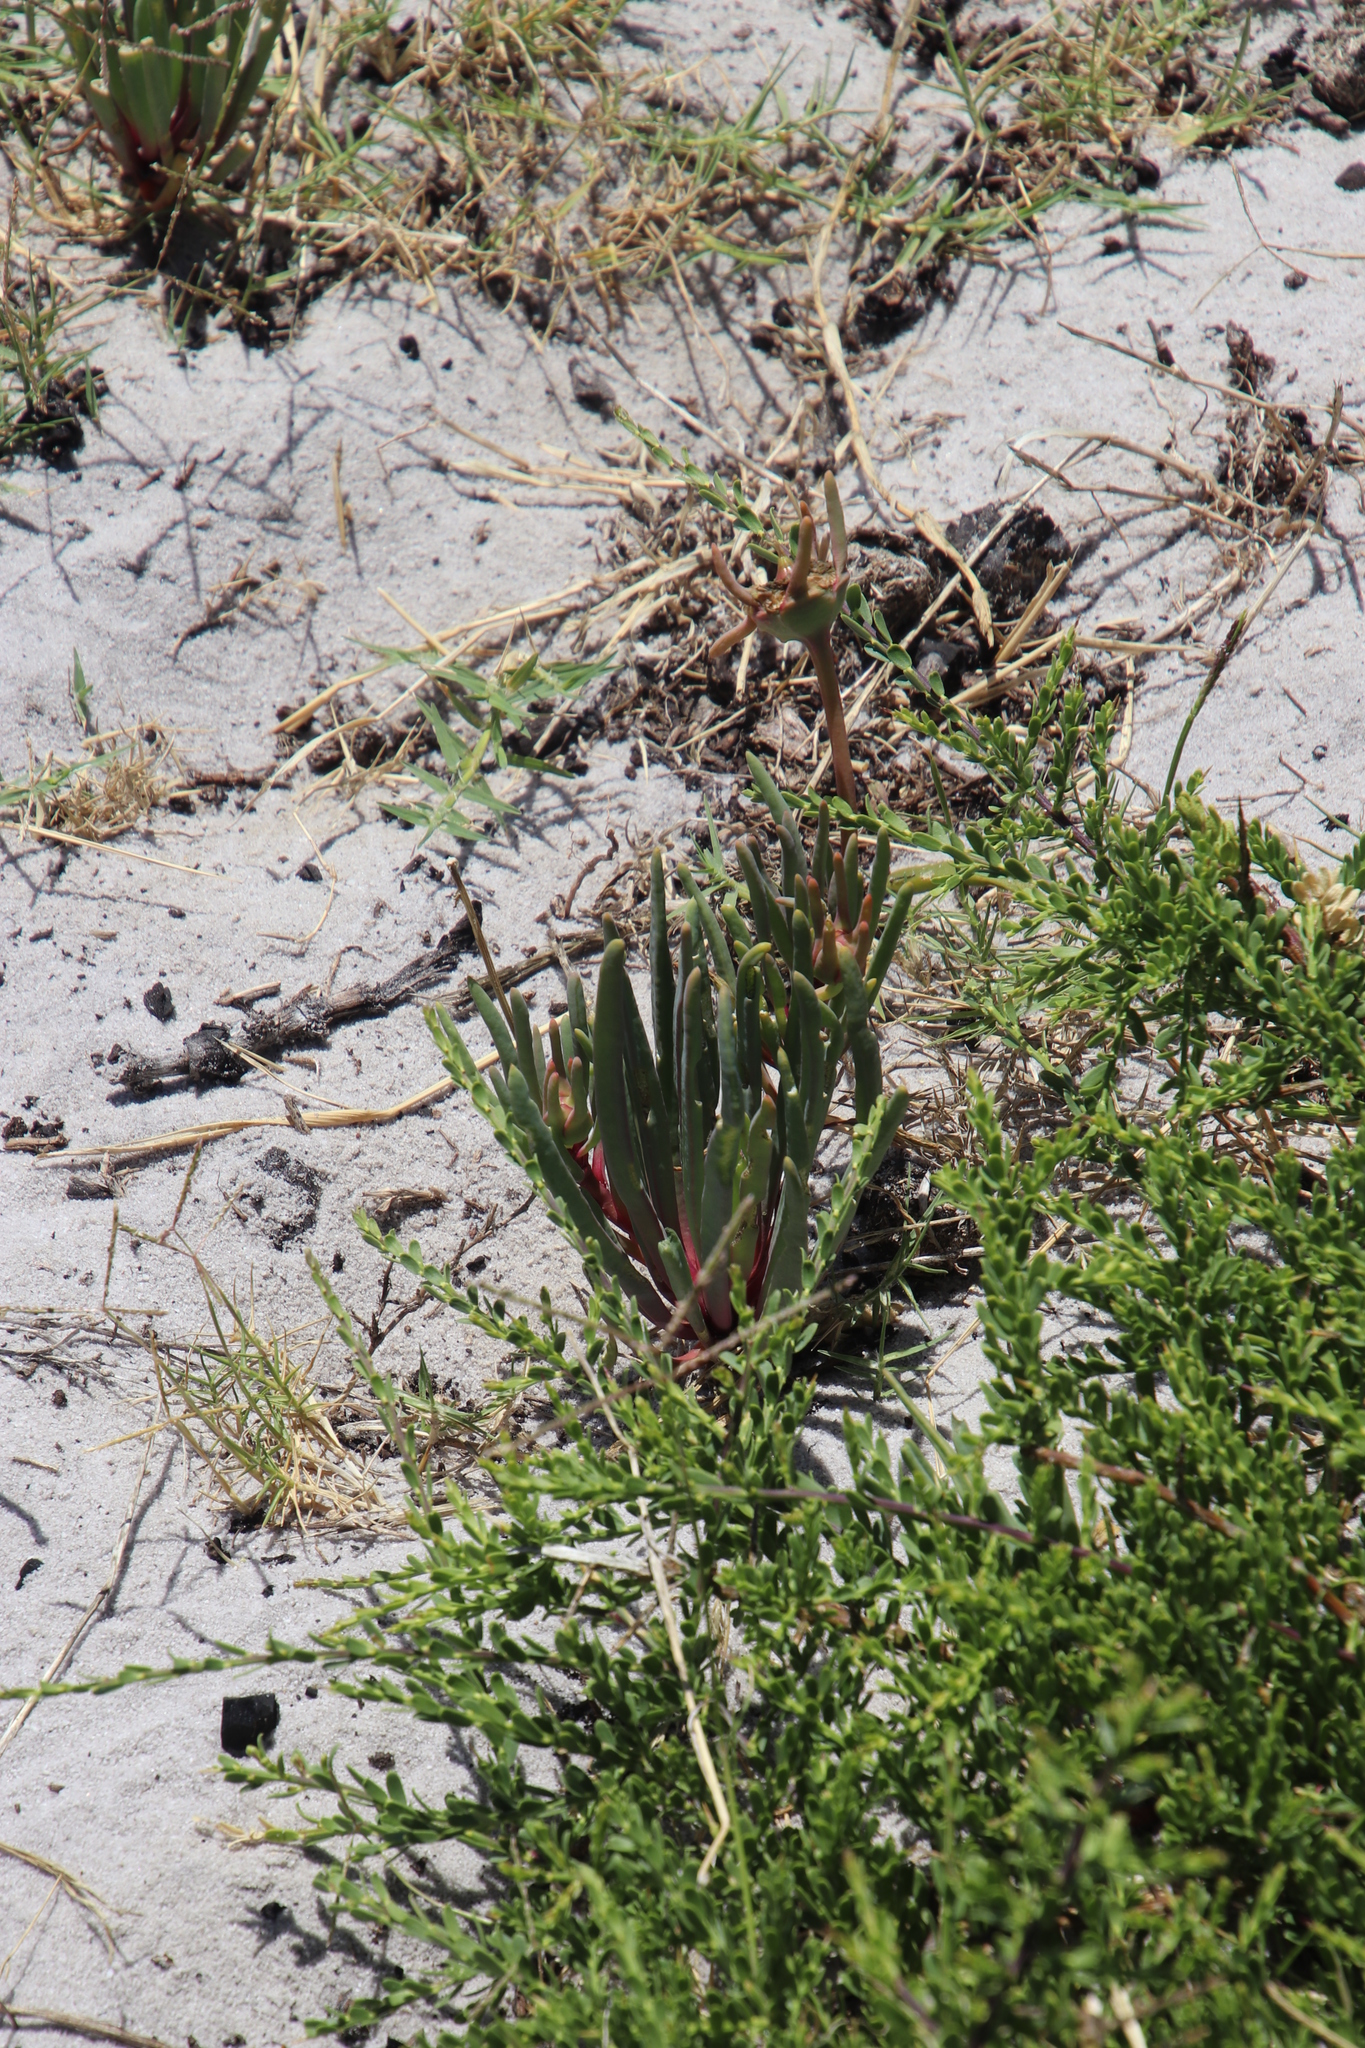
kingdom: Plantae
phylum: Tracheophyta
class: Magnoliopsida
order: Caryophyllales
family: Aizoaceae
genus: Conicosia
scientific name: Conicosia pugioniformis
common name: Narrow-leaved iceplant
